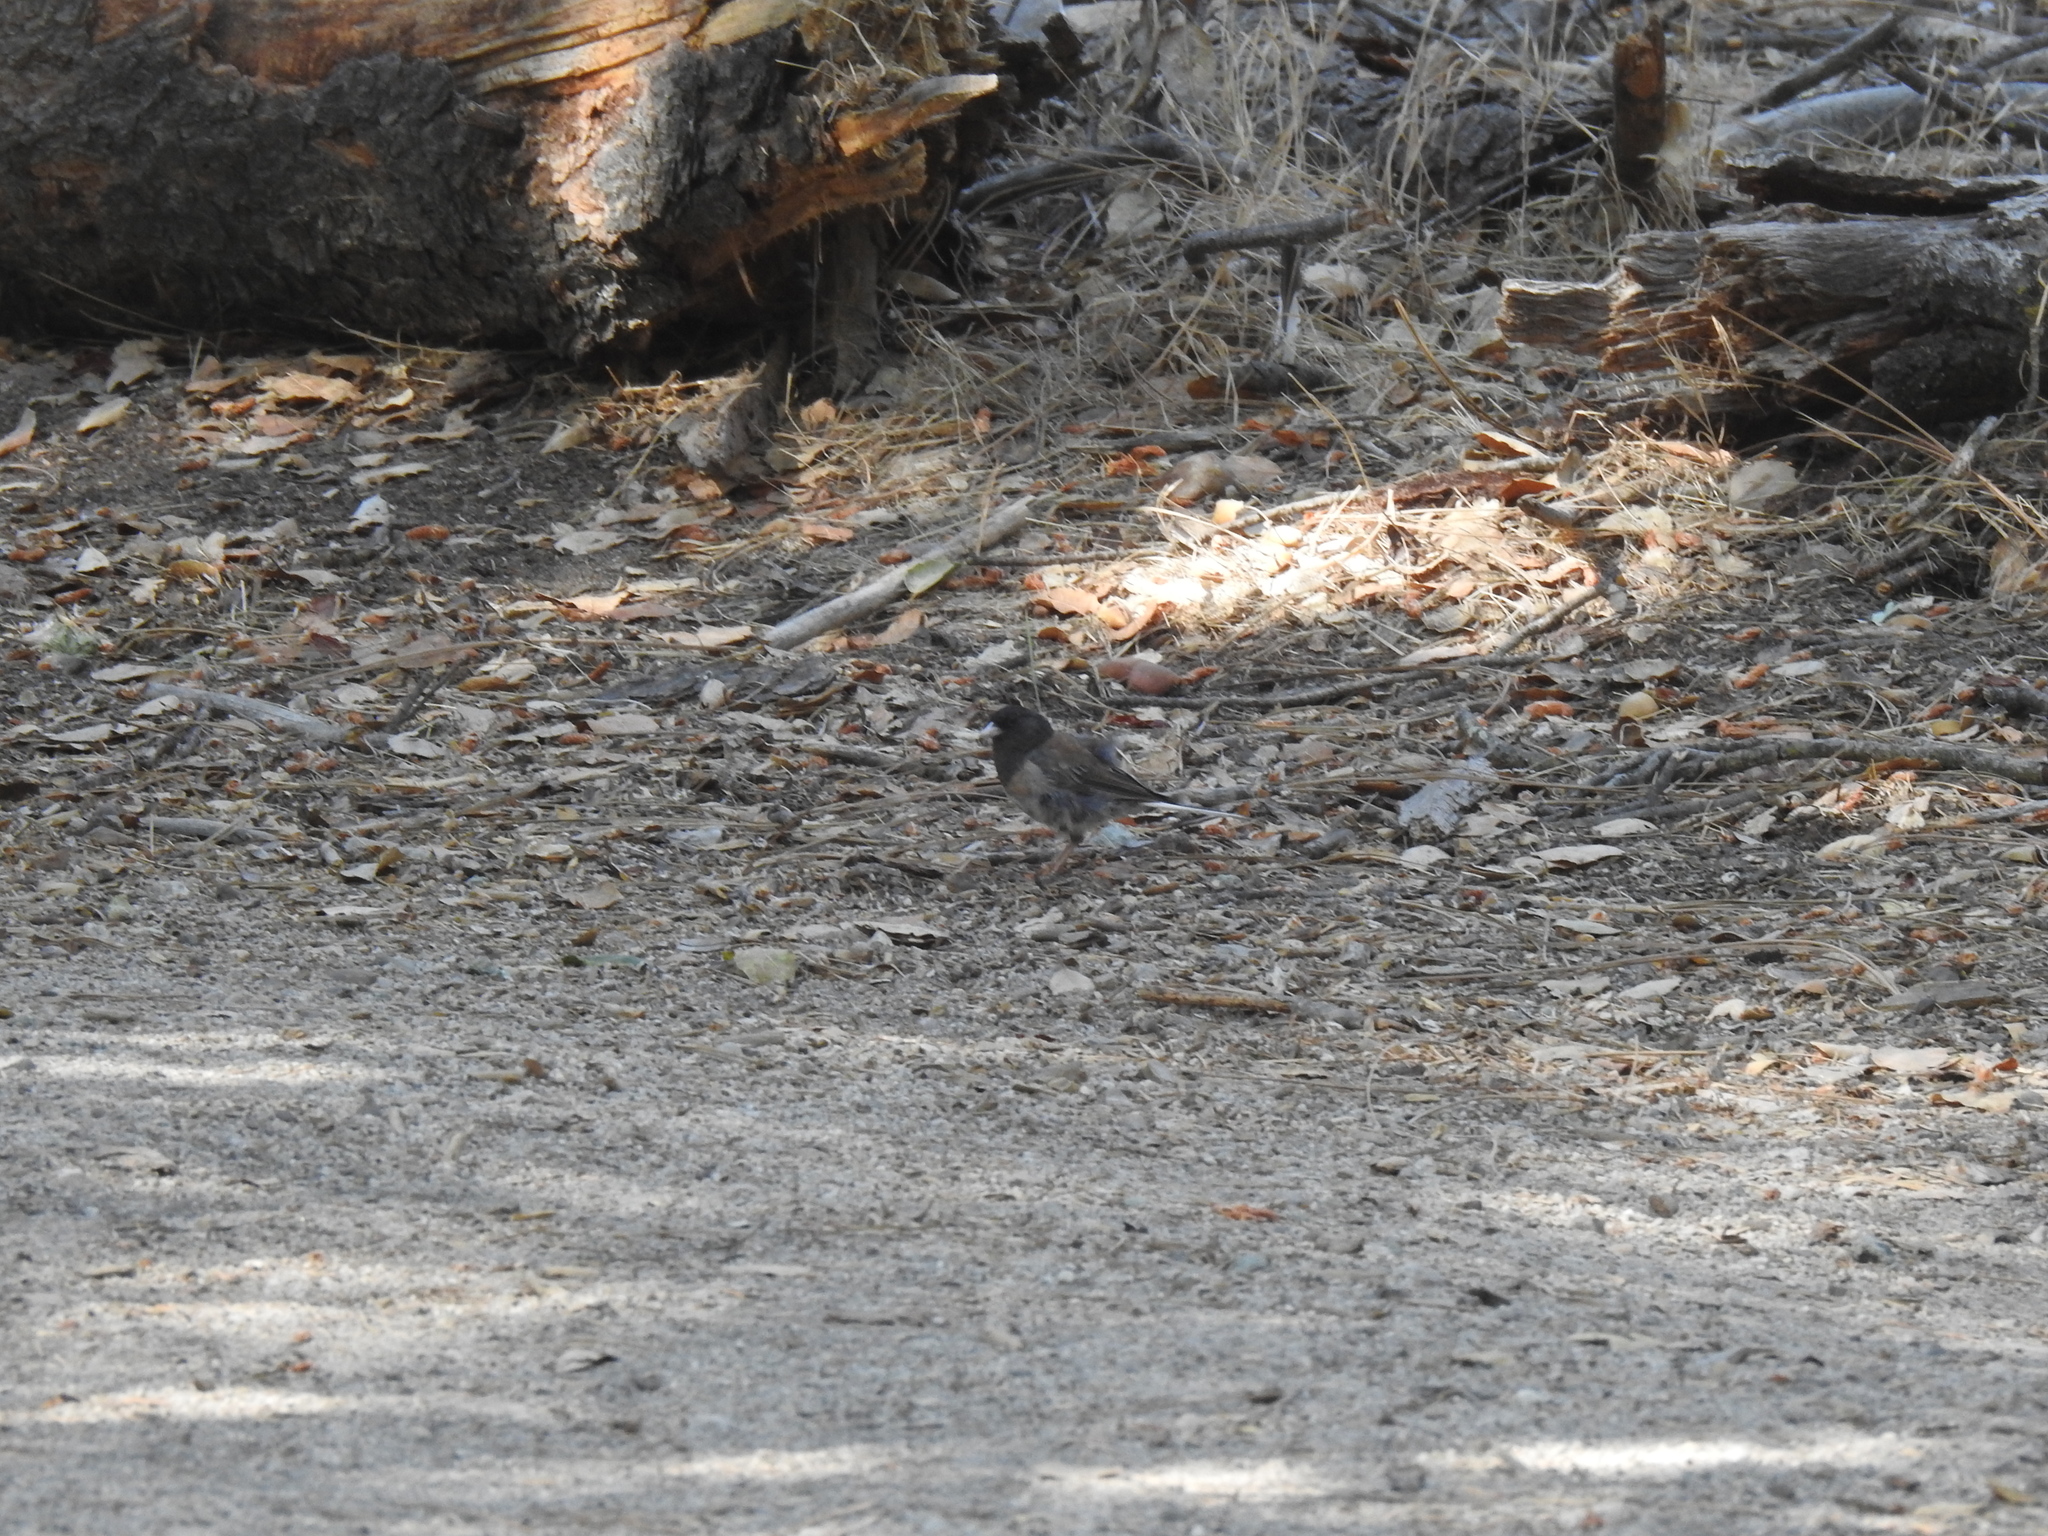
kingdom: Animalia
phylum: Chordata
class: Aves
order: Passeriformes
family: Passerellidae
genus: Junco
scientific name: Junco hyemalis
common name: Dark-eyed junco
